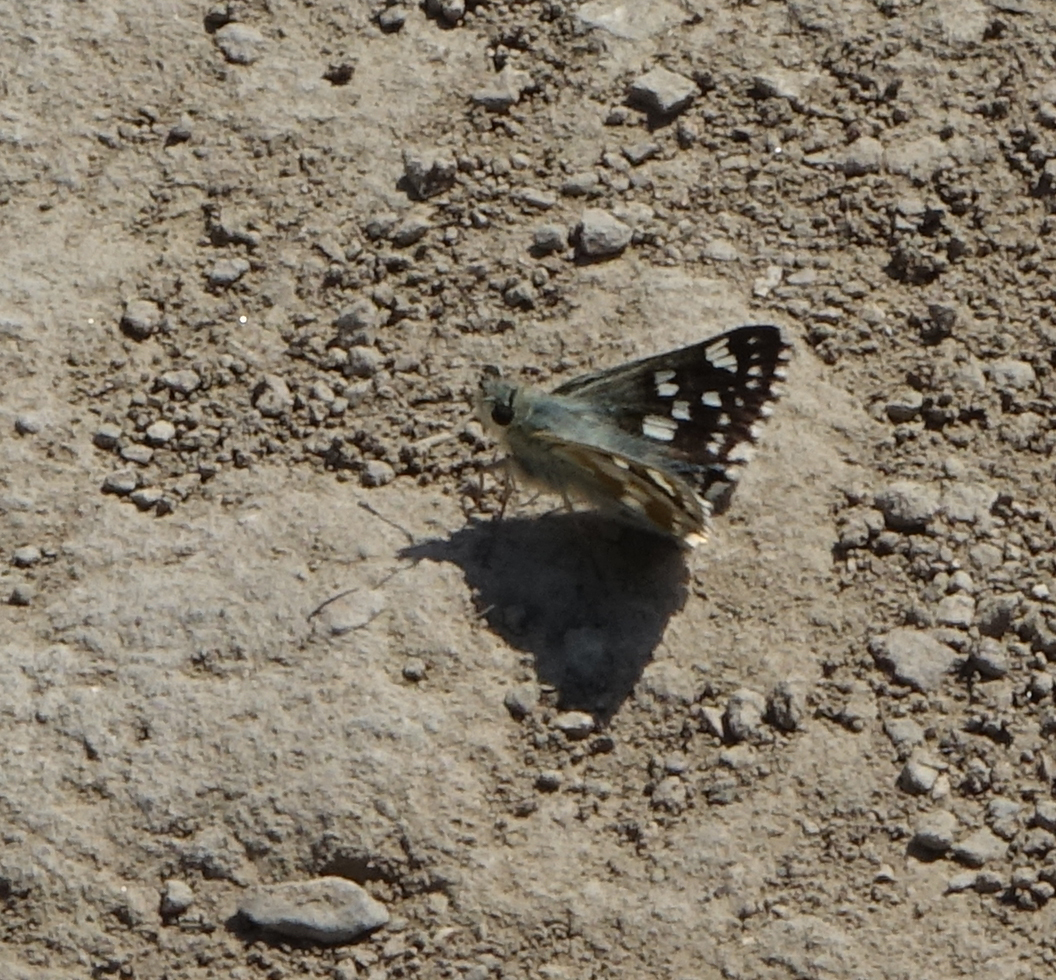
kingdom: Animalia
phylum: Arthropoda
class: Insecta
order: Lepidoptera
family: Hesperiidae
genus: Syrichtus
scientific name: Syrichtus cribrellum
